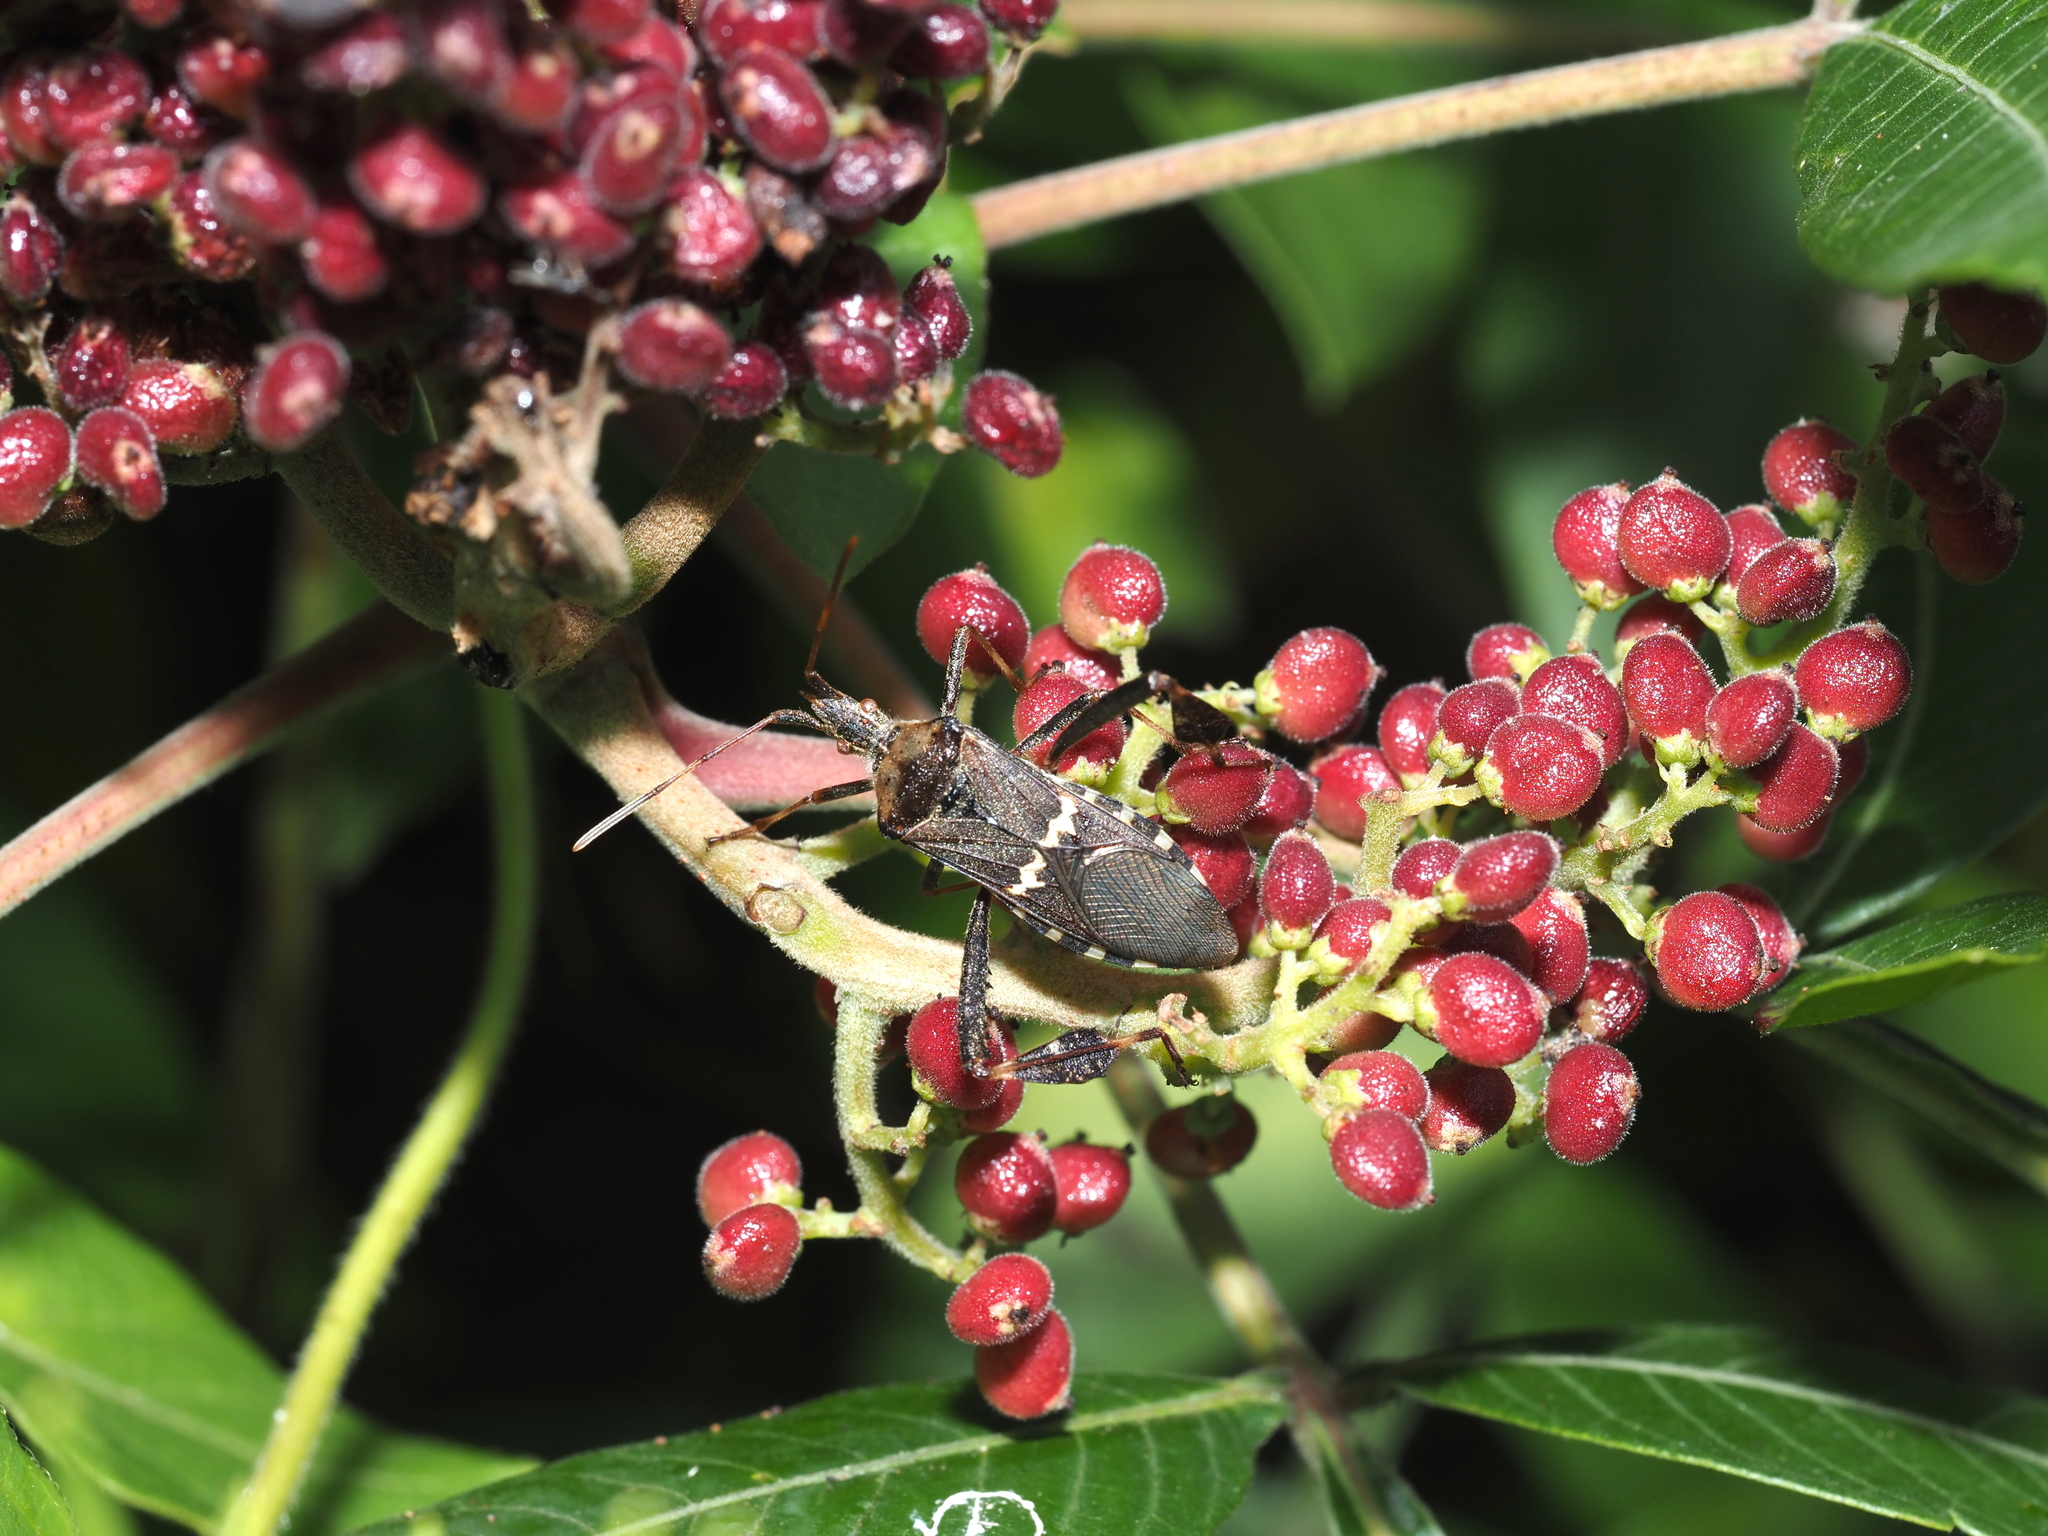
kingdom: Animalia
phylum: Arthropoda
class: Insecta
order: Hemiptera
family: Coreidae
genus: Leptoglossus
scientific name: Leptoglossus clypealis
